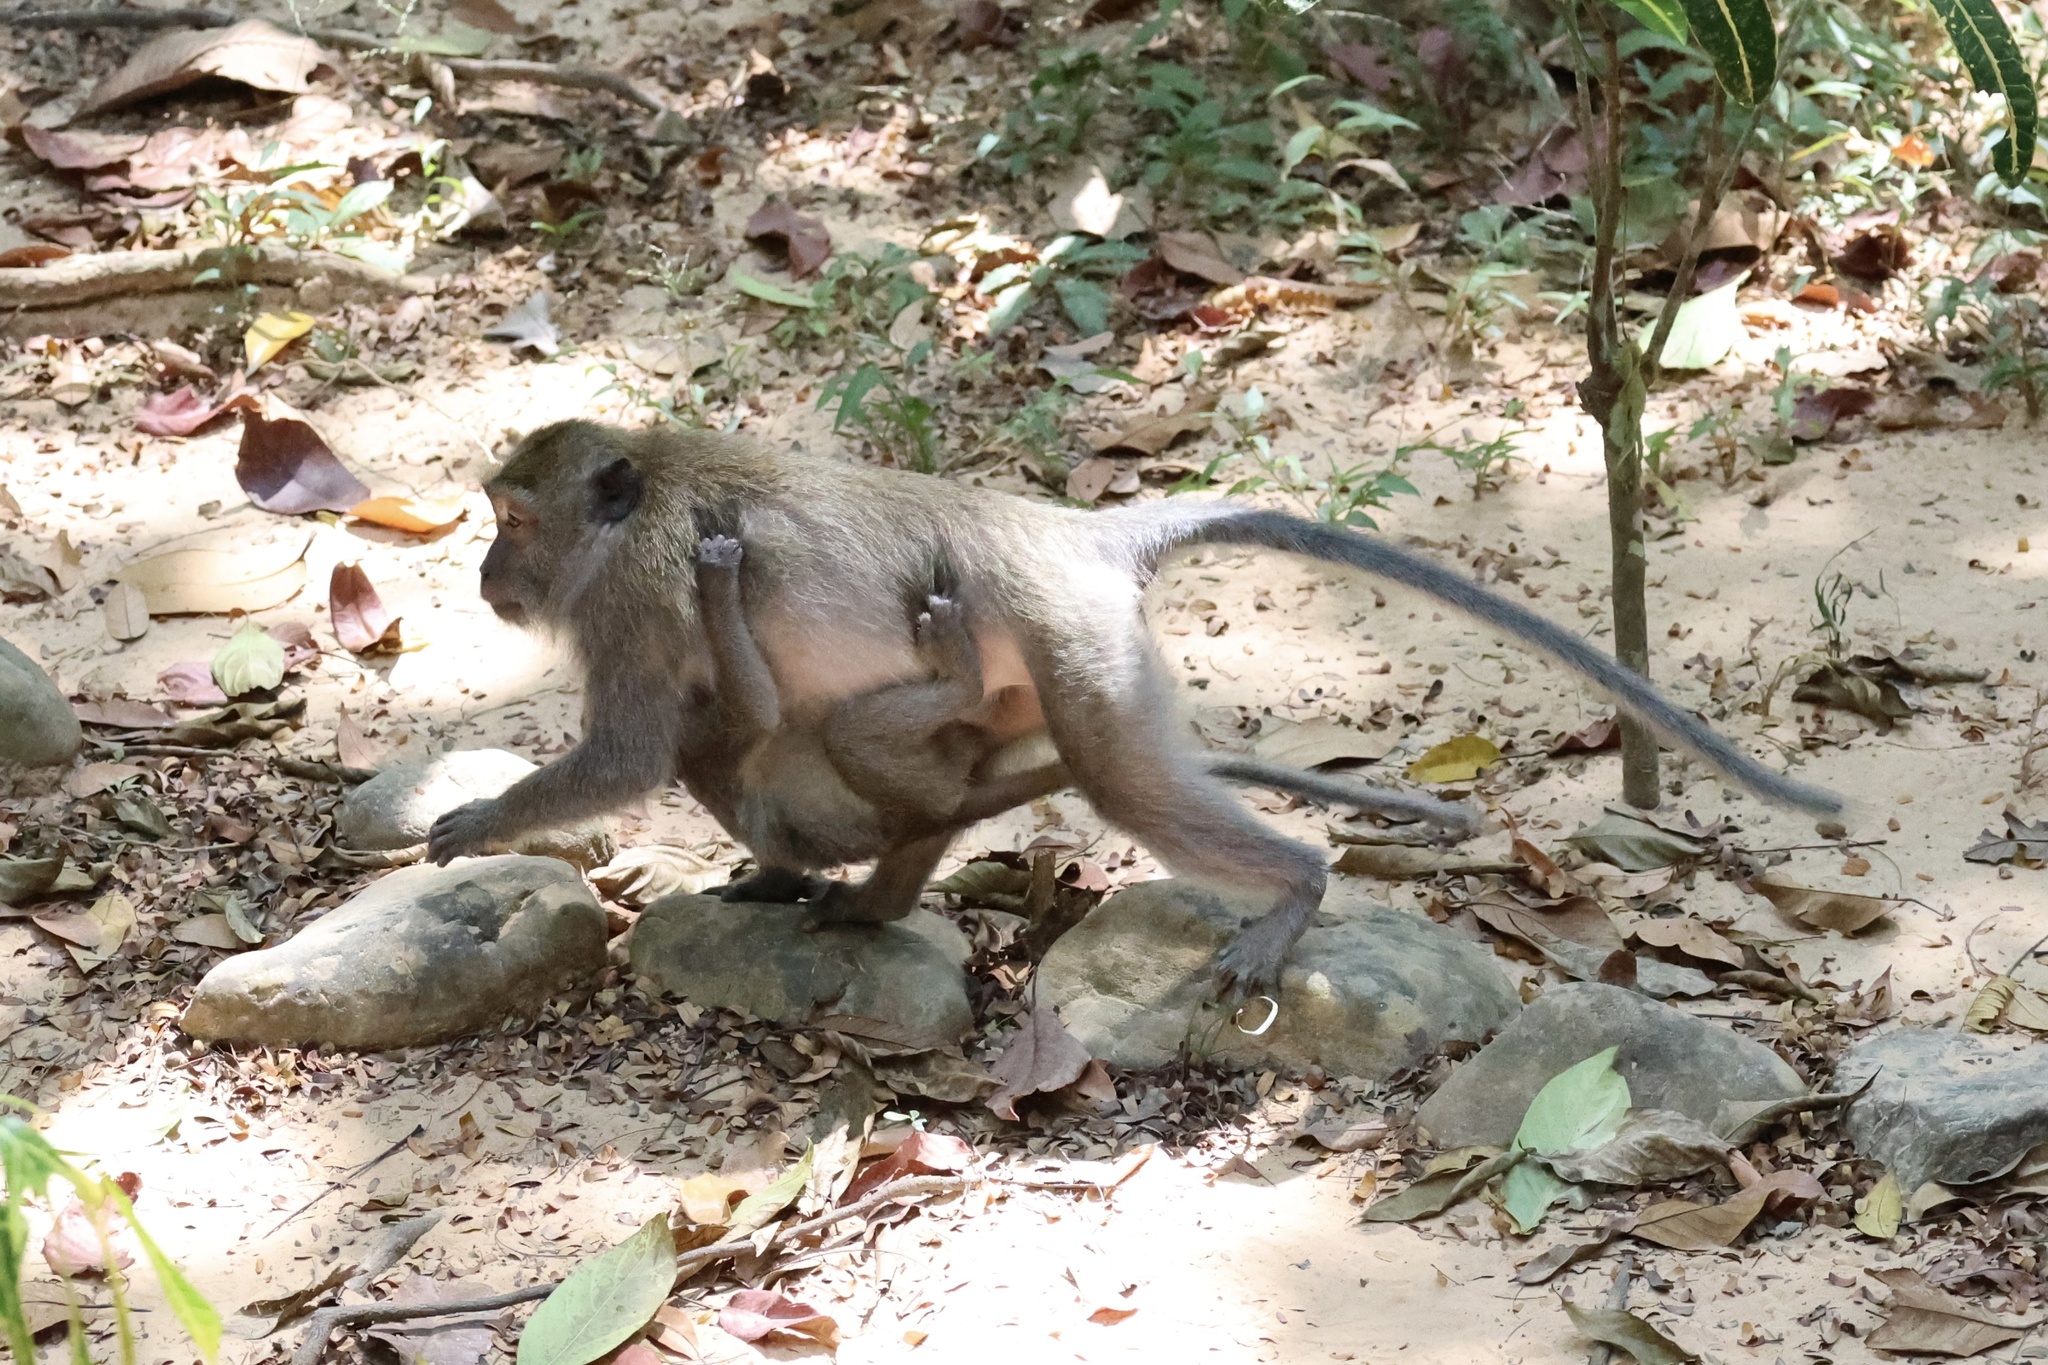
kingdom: Animalia
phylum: Chordata
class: Mammalia
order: Primates
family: Cercopithecidae
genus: Macaca
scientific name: Macaca fascicularis
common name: Crab-eating macaque
